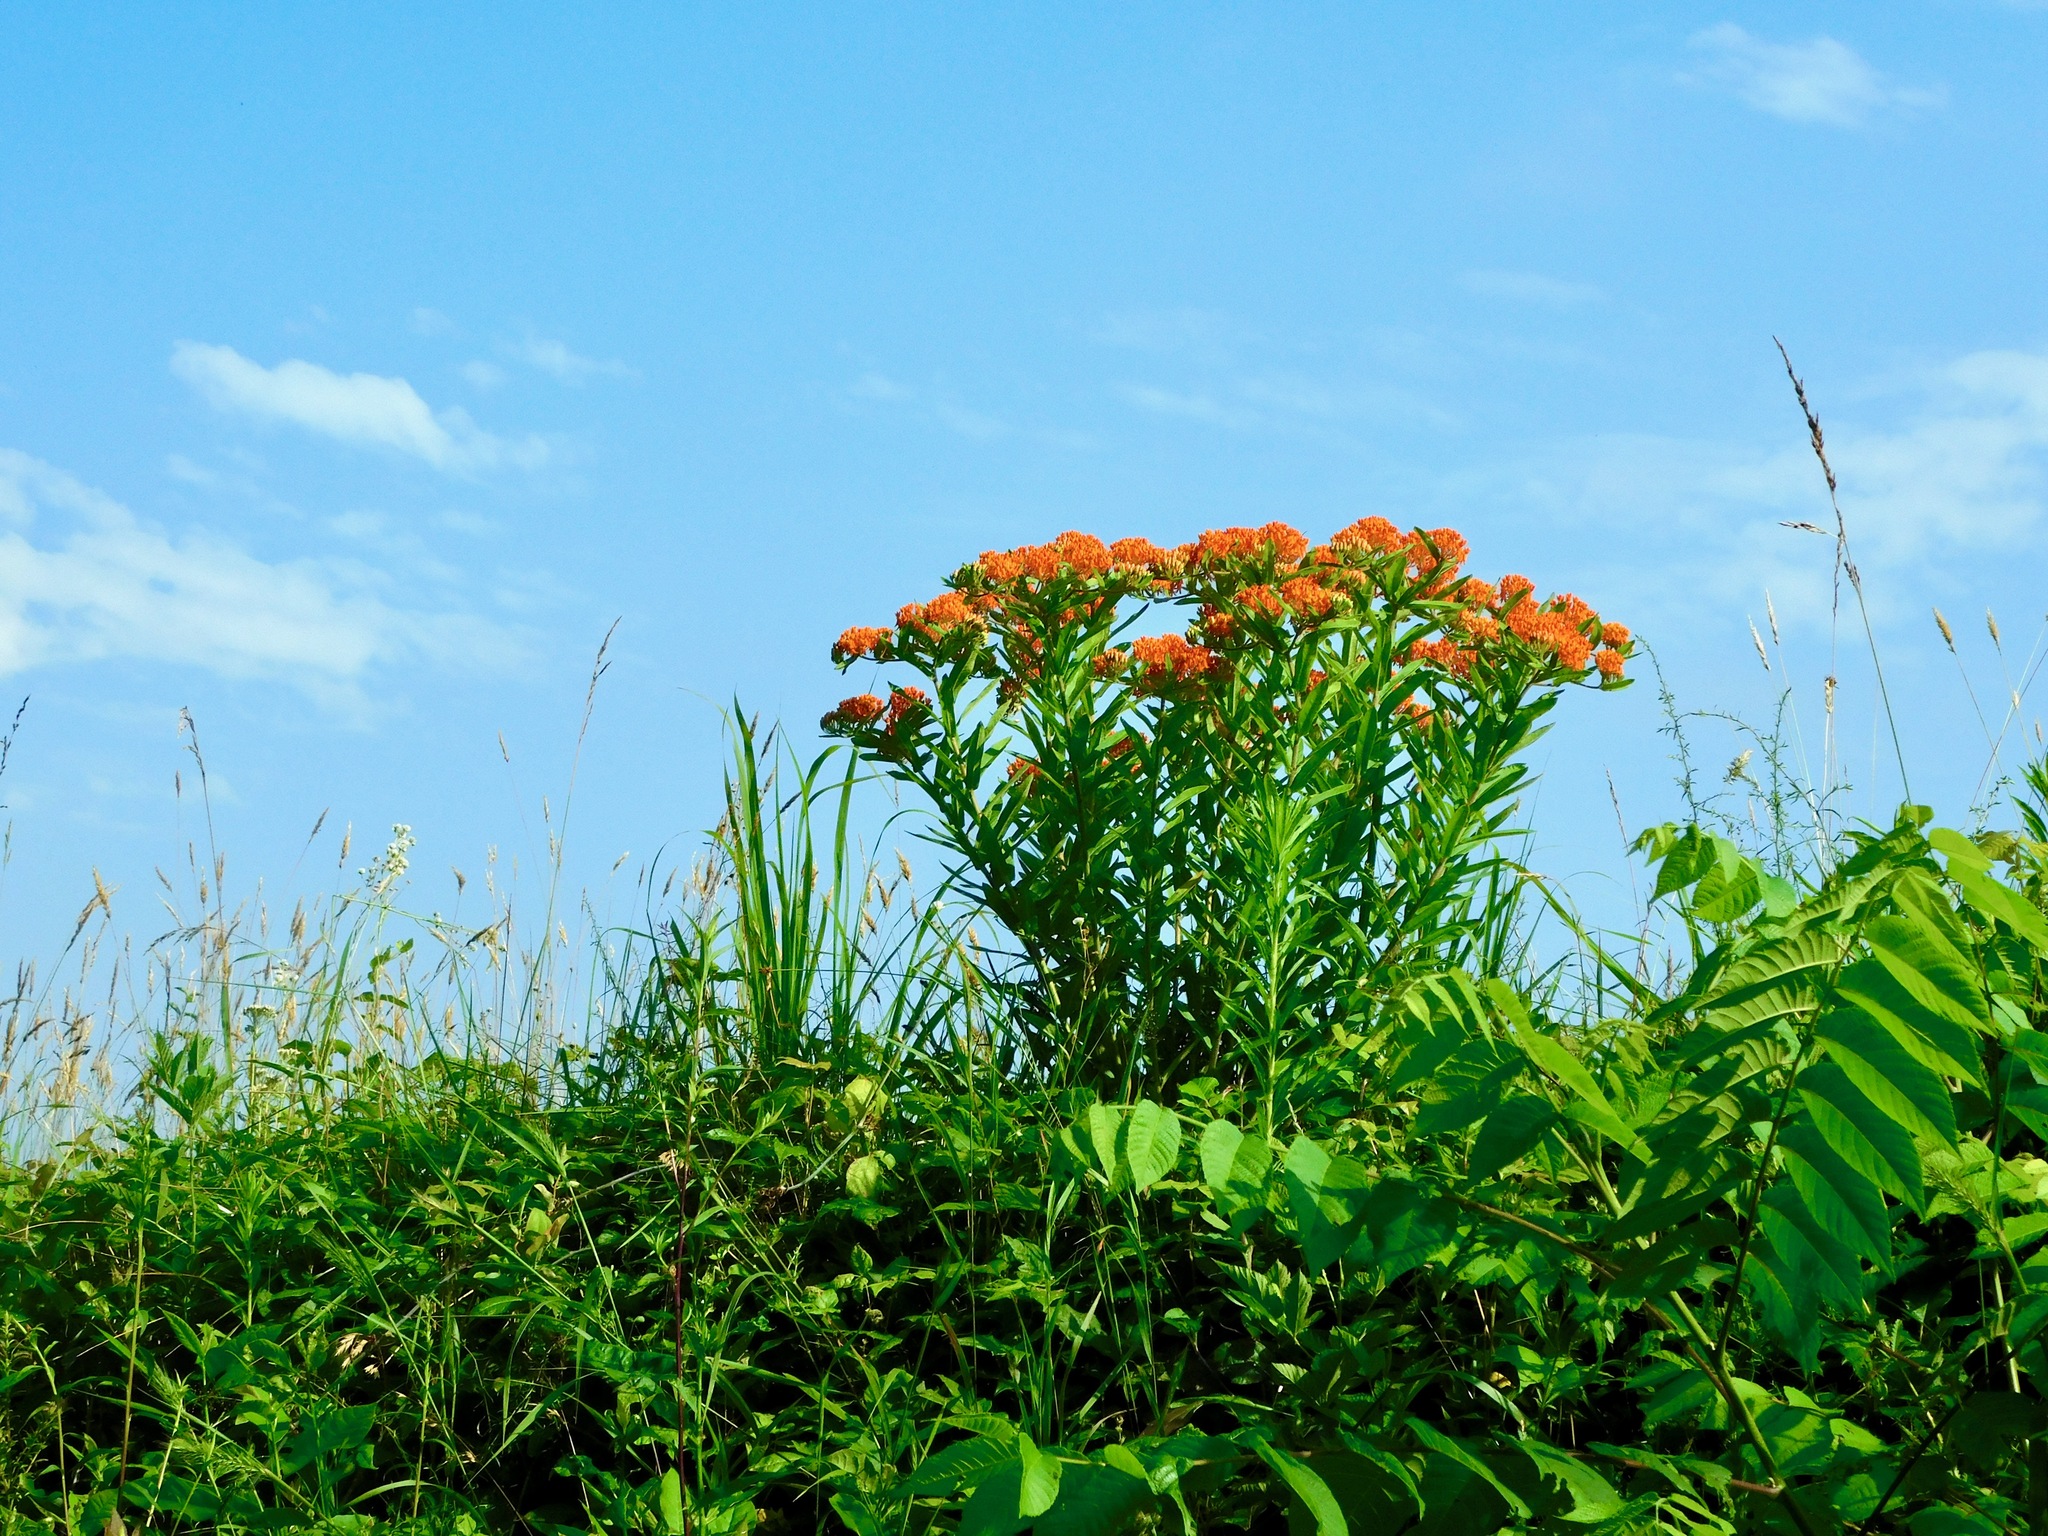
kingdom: Plantae
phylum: Tracheophyta
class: Magnoliopsida
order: Gentianales
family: Apocynaceae
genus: Asclepias
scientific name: Asclepias tuberosa
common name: Butterfly milkweed
